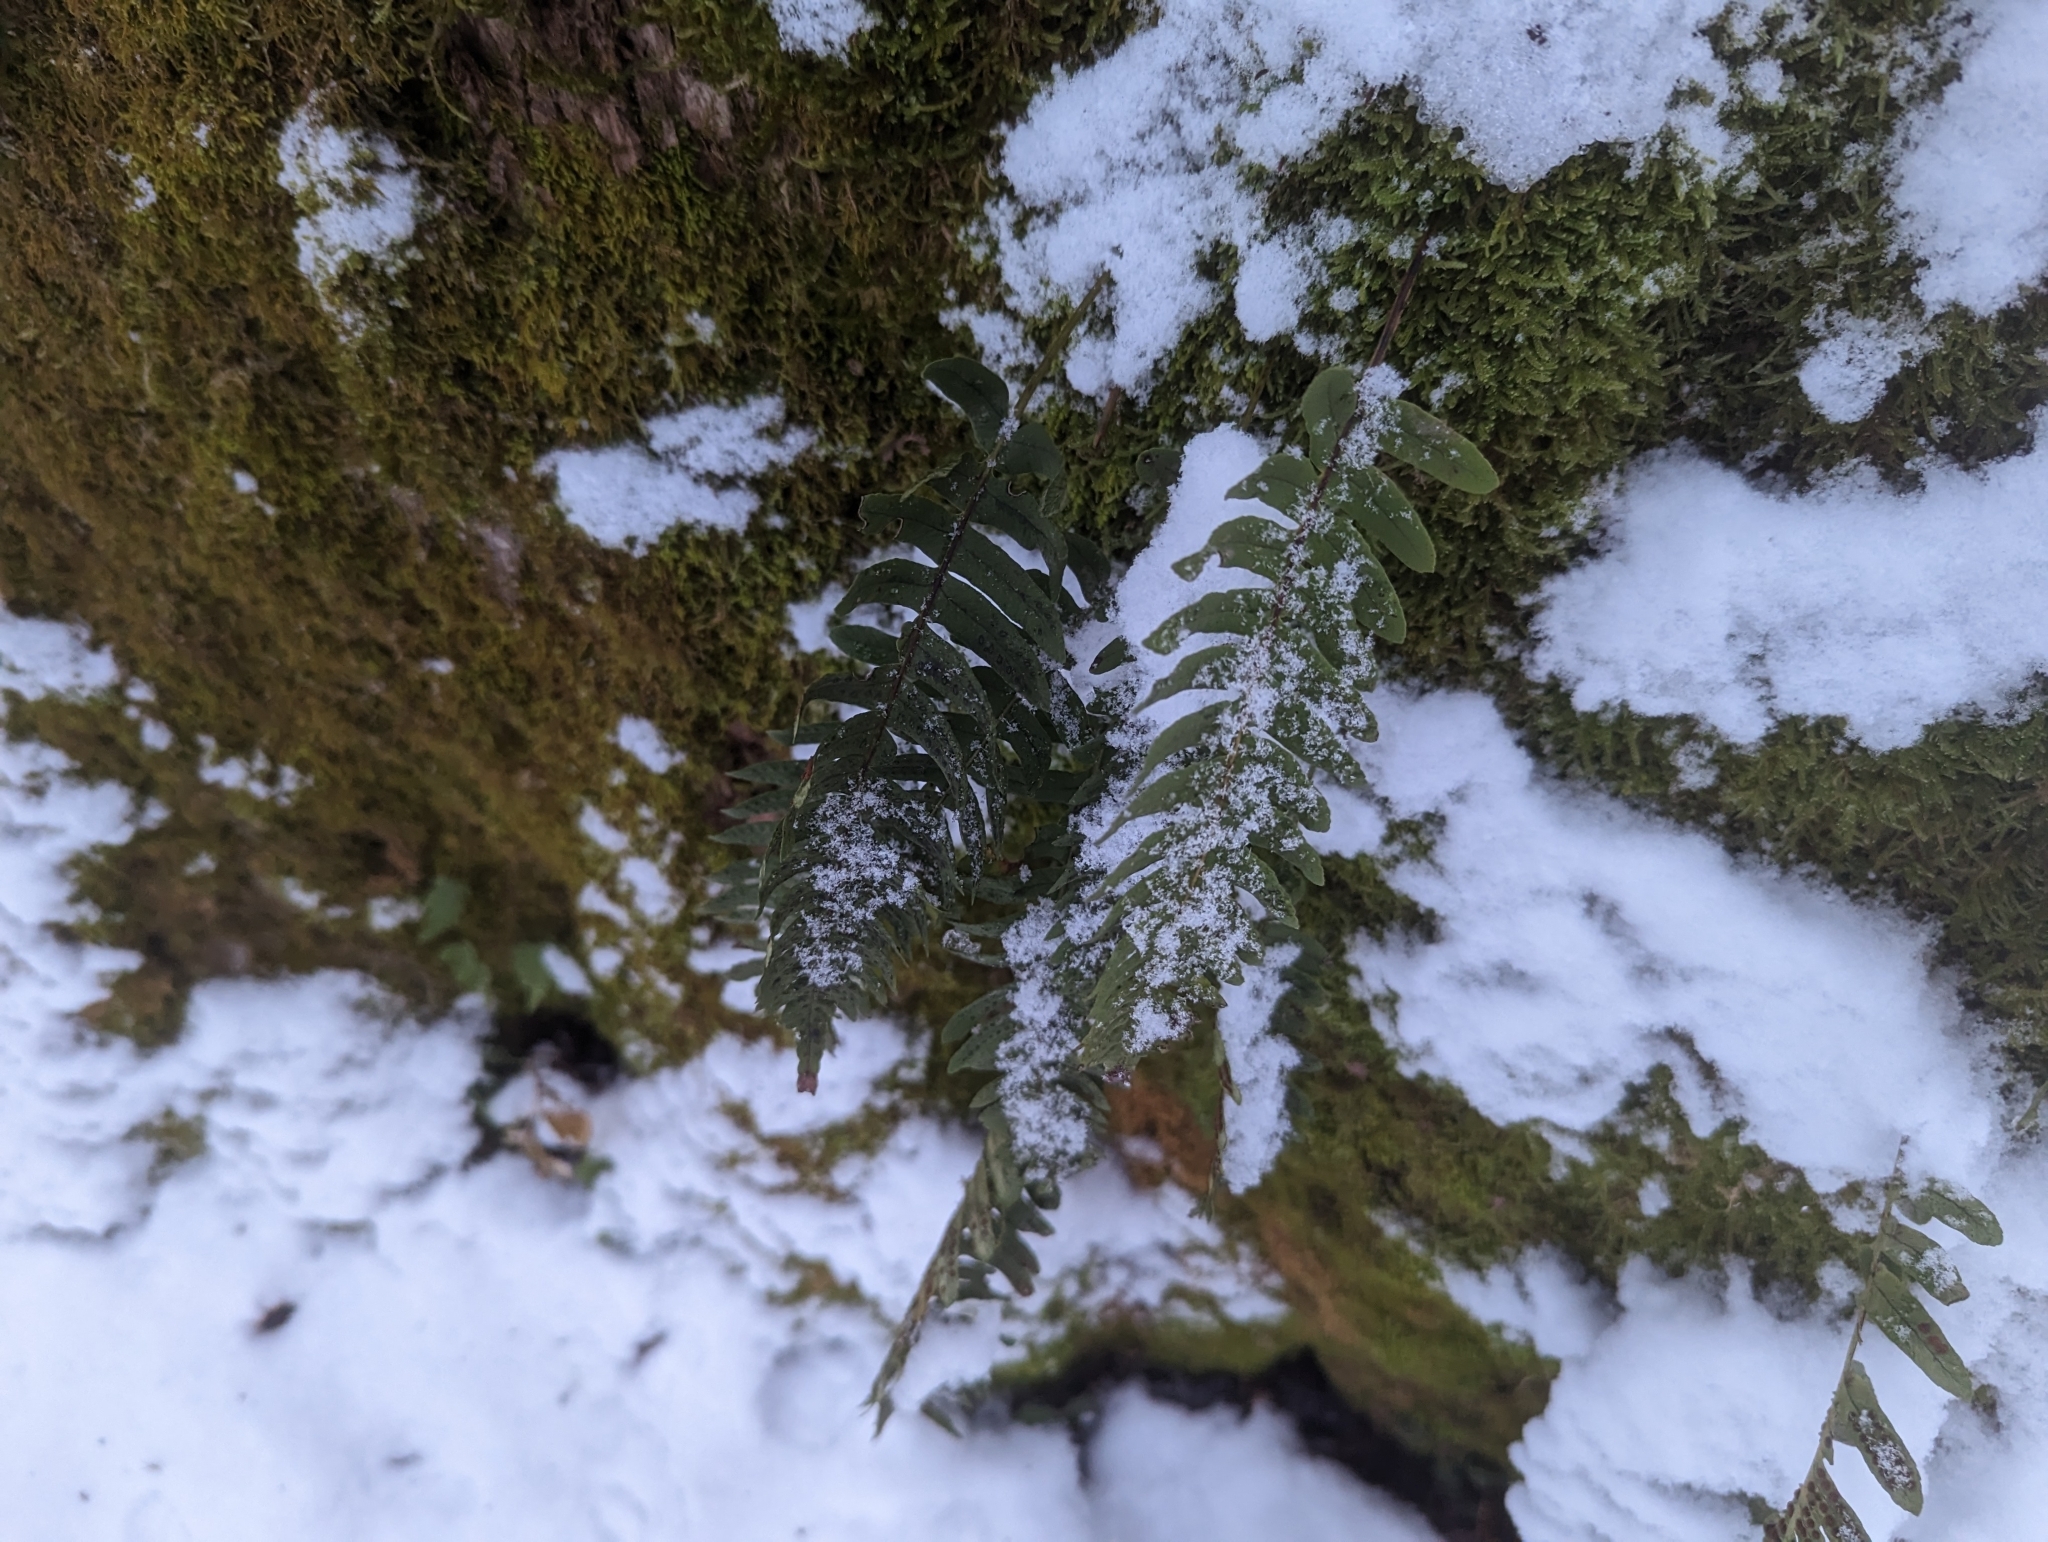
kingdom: Plantae
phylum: Tracheophyta
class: Polypodiopsida
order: Polypodiales
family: Polypodiaceae
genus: Polypodium
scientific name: Polypodium vulgare
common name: Common polypody
